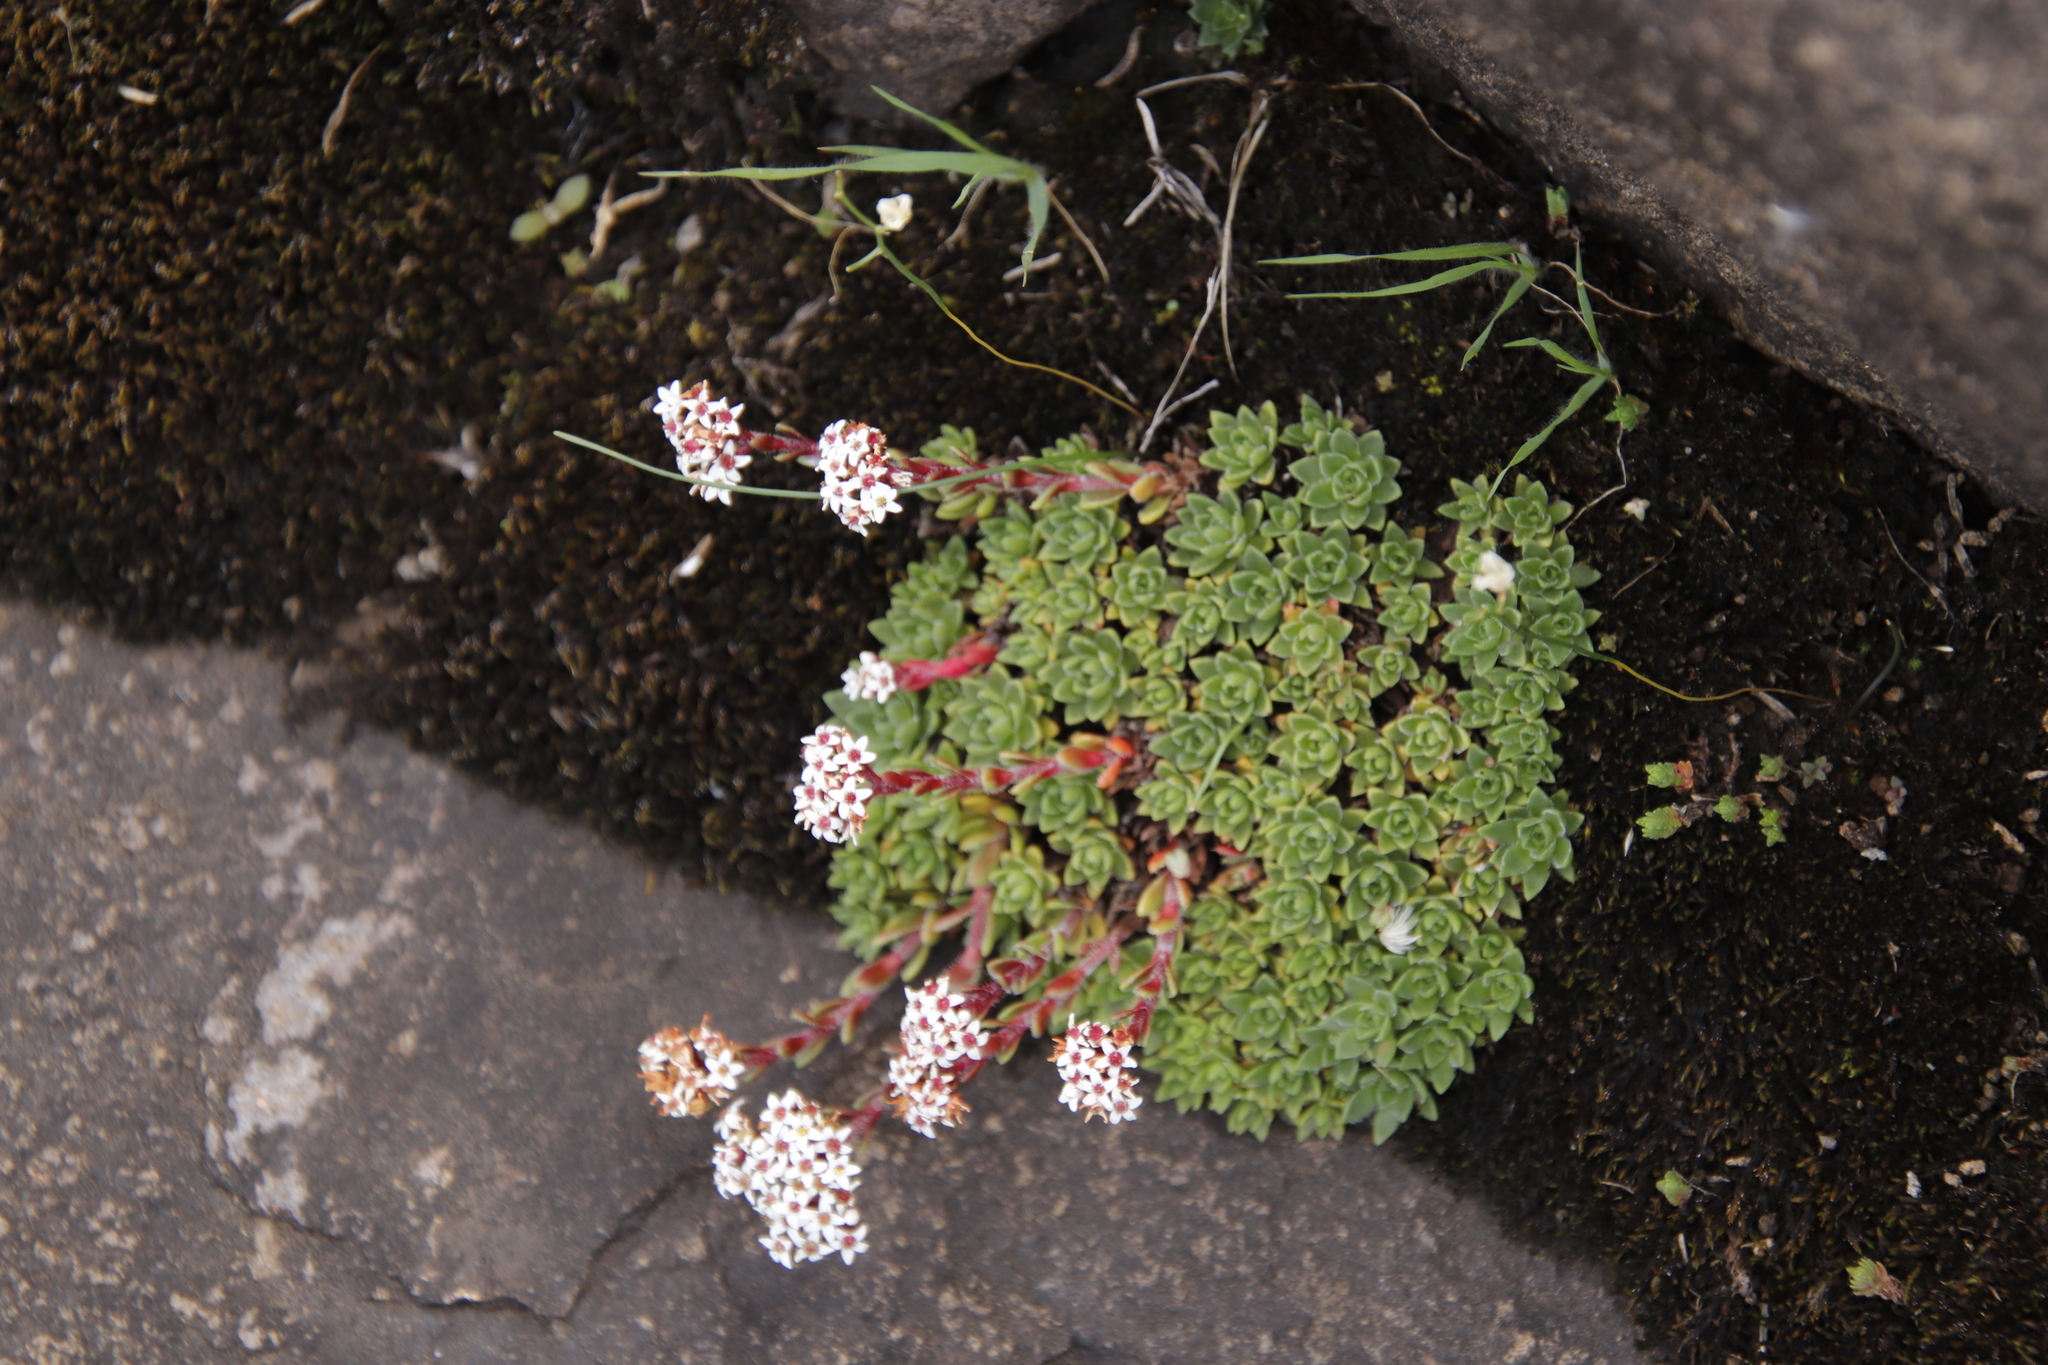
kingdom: Plantae
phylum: Tracheophyta
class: Magnoliopsida
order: Saxifragales
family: Crassulaceae
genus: Crassula
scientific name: Crassula setulosa
